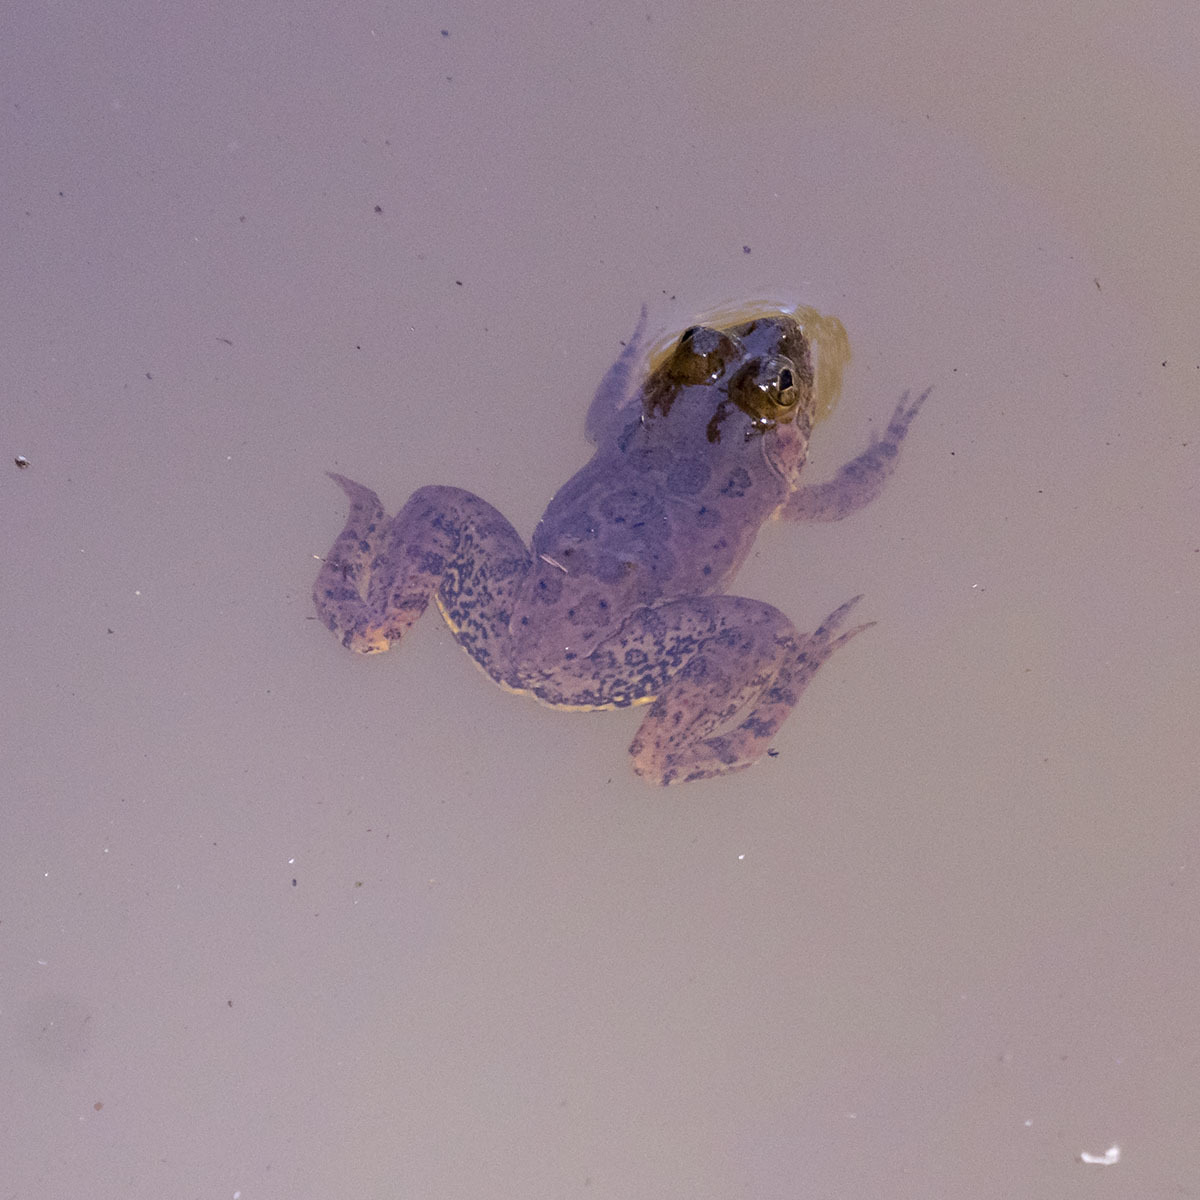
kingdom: Animalia
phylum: Chordata
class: Amphibia
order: Anura
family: Dicroglossidae
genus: Euphlyctis
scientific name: Euphlyctis cyanophlyctis
